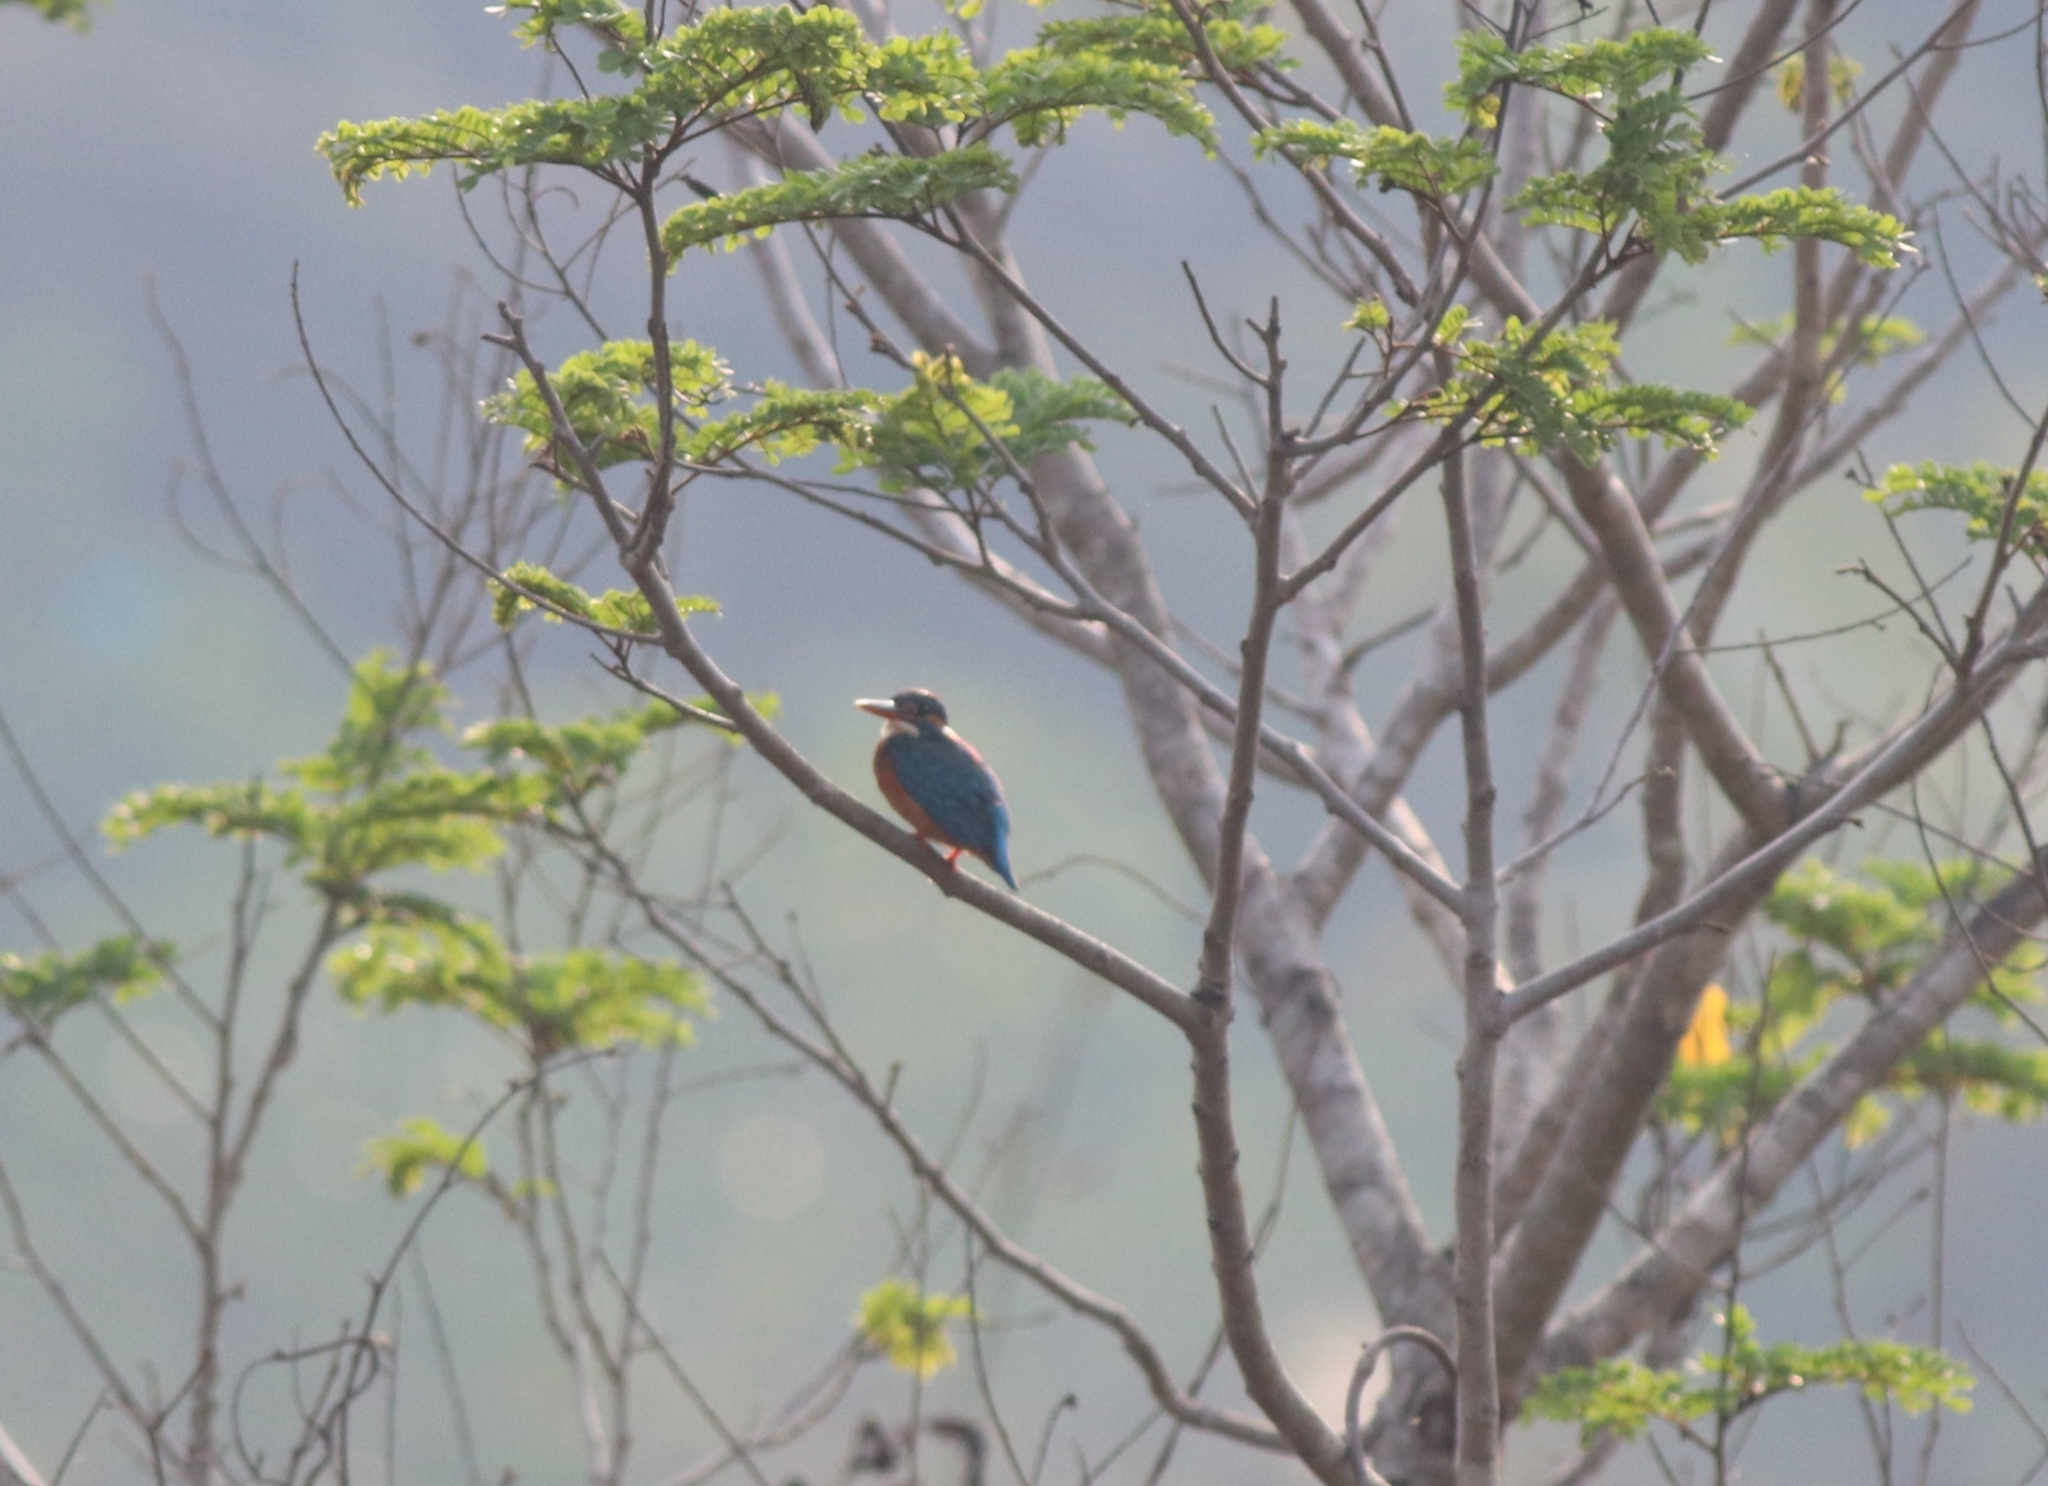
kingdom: Animalia
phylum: Chordata
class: Aves
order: Coraciiformes
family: Alcedinidae
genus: Alcedo
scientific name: Alcedo atthis
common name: Common kingfisher
